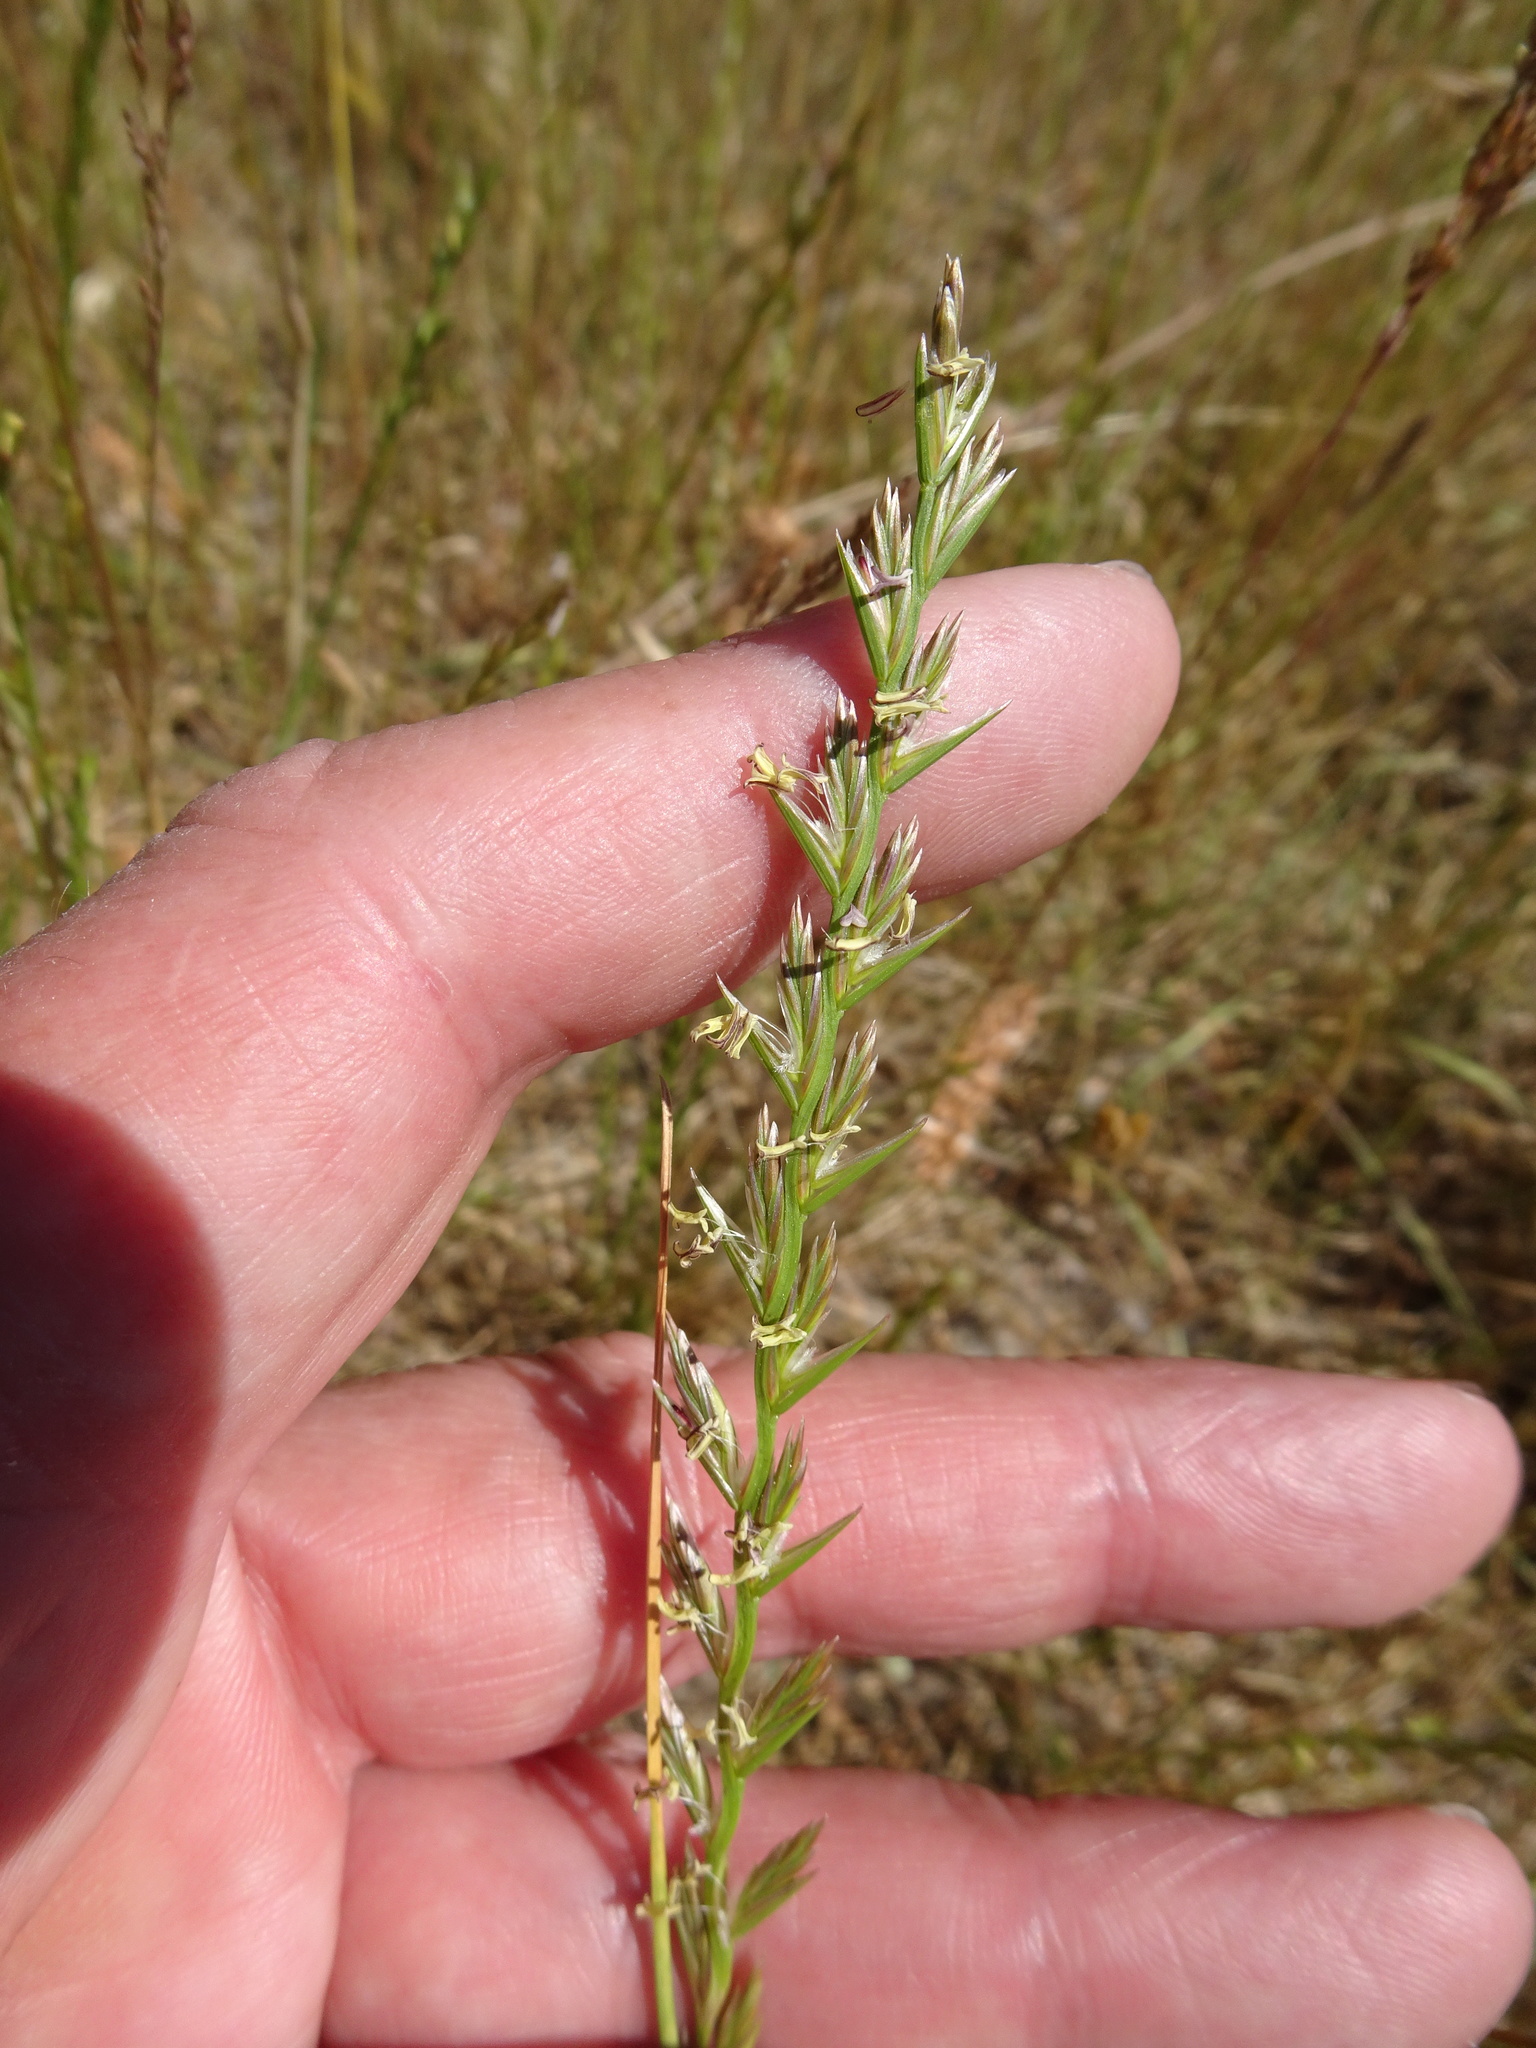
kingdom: Plantae
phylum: Tracheophyta
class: Liliopsida
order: Poales
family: Poaceae
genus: Lolium
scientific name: Lolium perenne
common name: Perennial ryegrass
